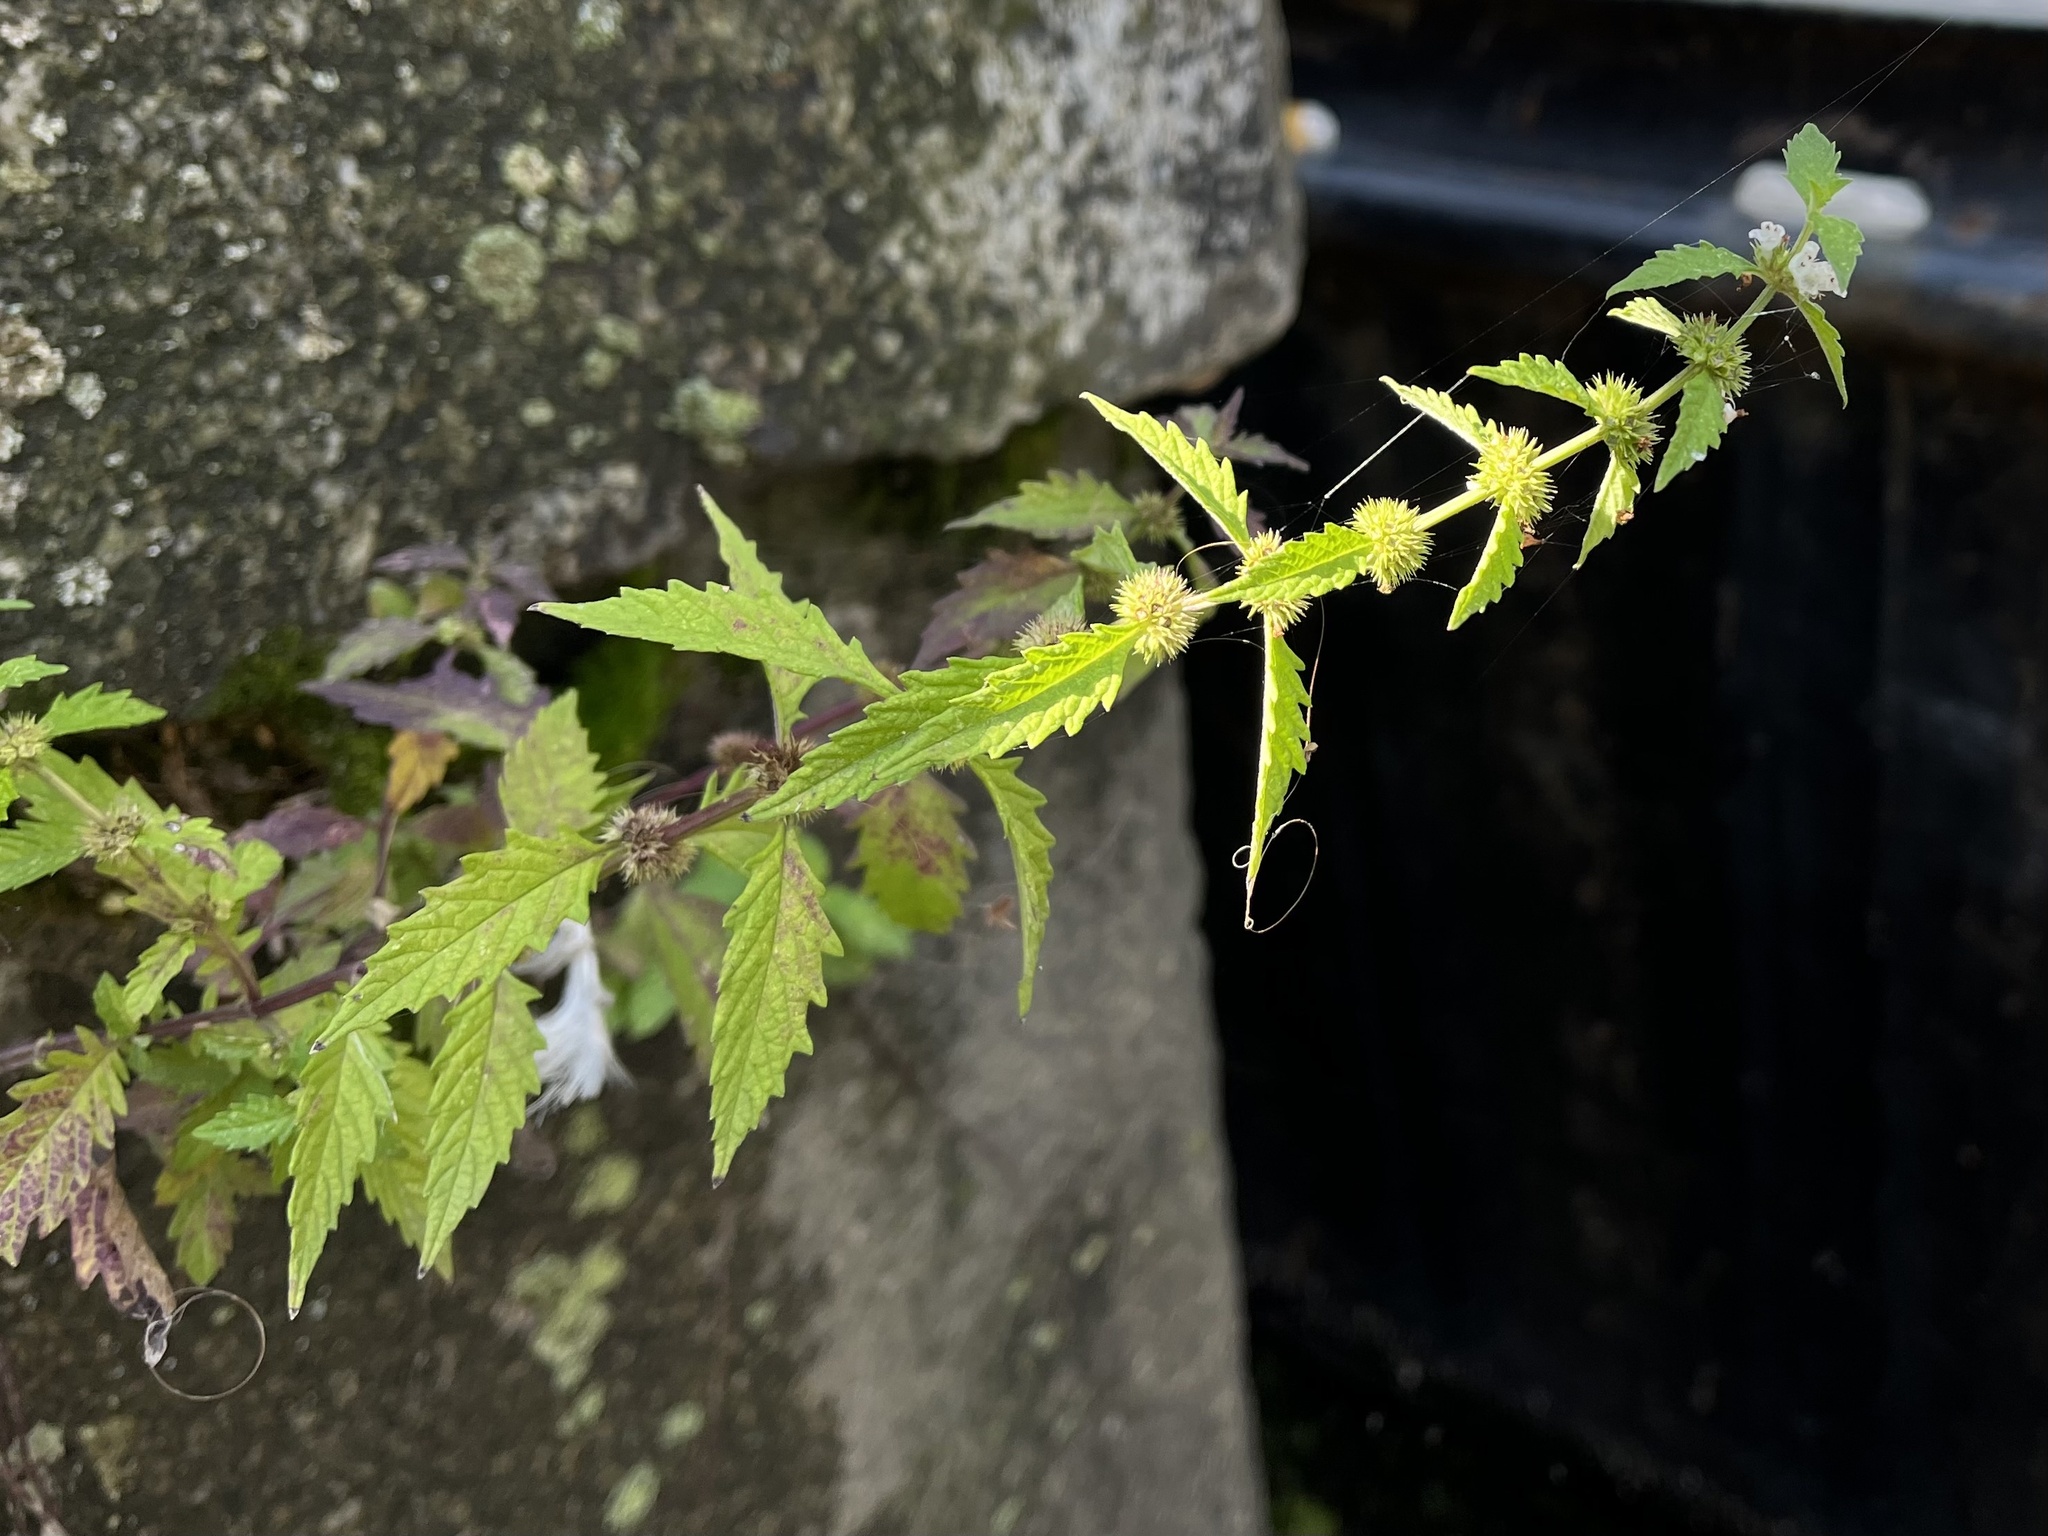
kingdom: Plantae
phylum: Tracheophyta
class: Magnoliopsida
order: Lamiales
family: Lamiaceae
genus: Lycopus
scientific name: Lycopus europaeus
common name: European bugleweed
